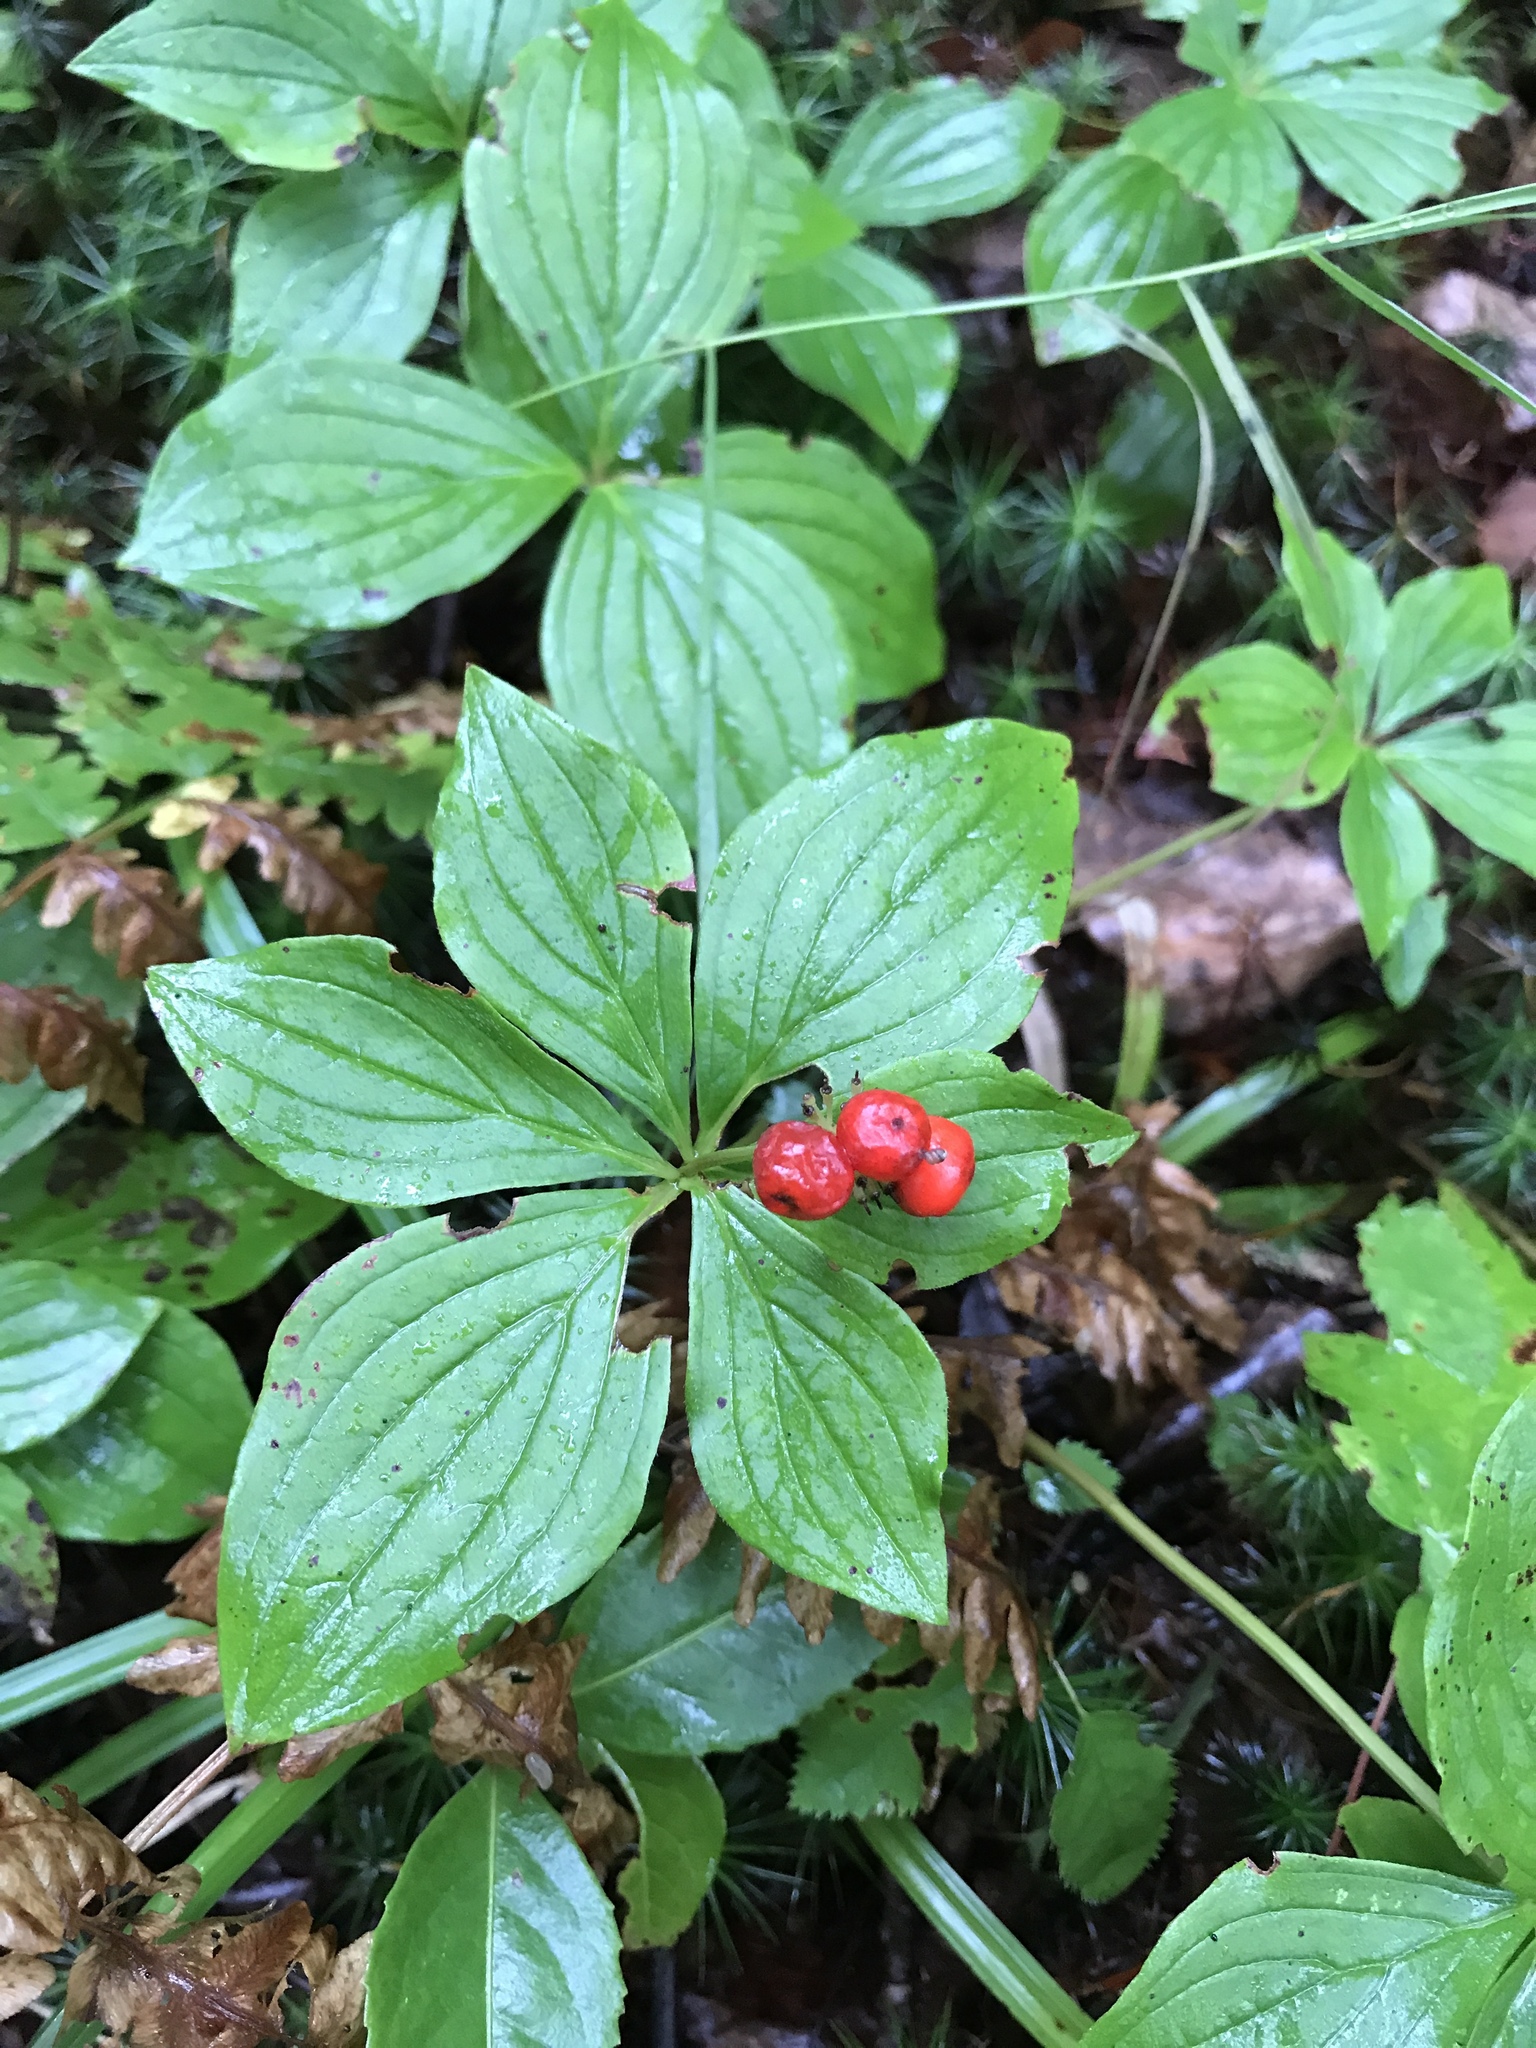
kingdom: Plantae
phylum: Tracheophyta
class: Magnoliopsida
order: Cornales
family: Cornaceae
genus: Cornus
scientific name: Cornus canadensis
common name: Creeping dogwood
